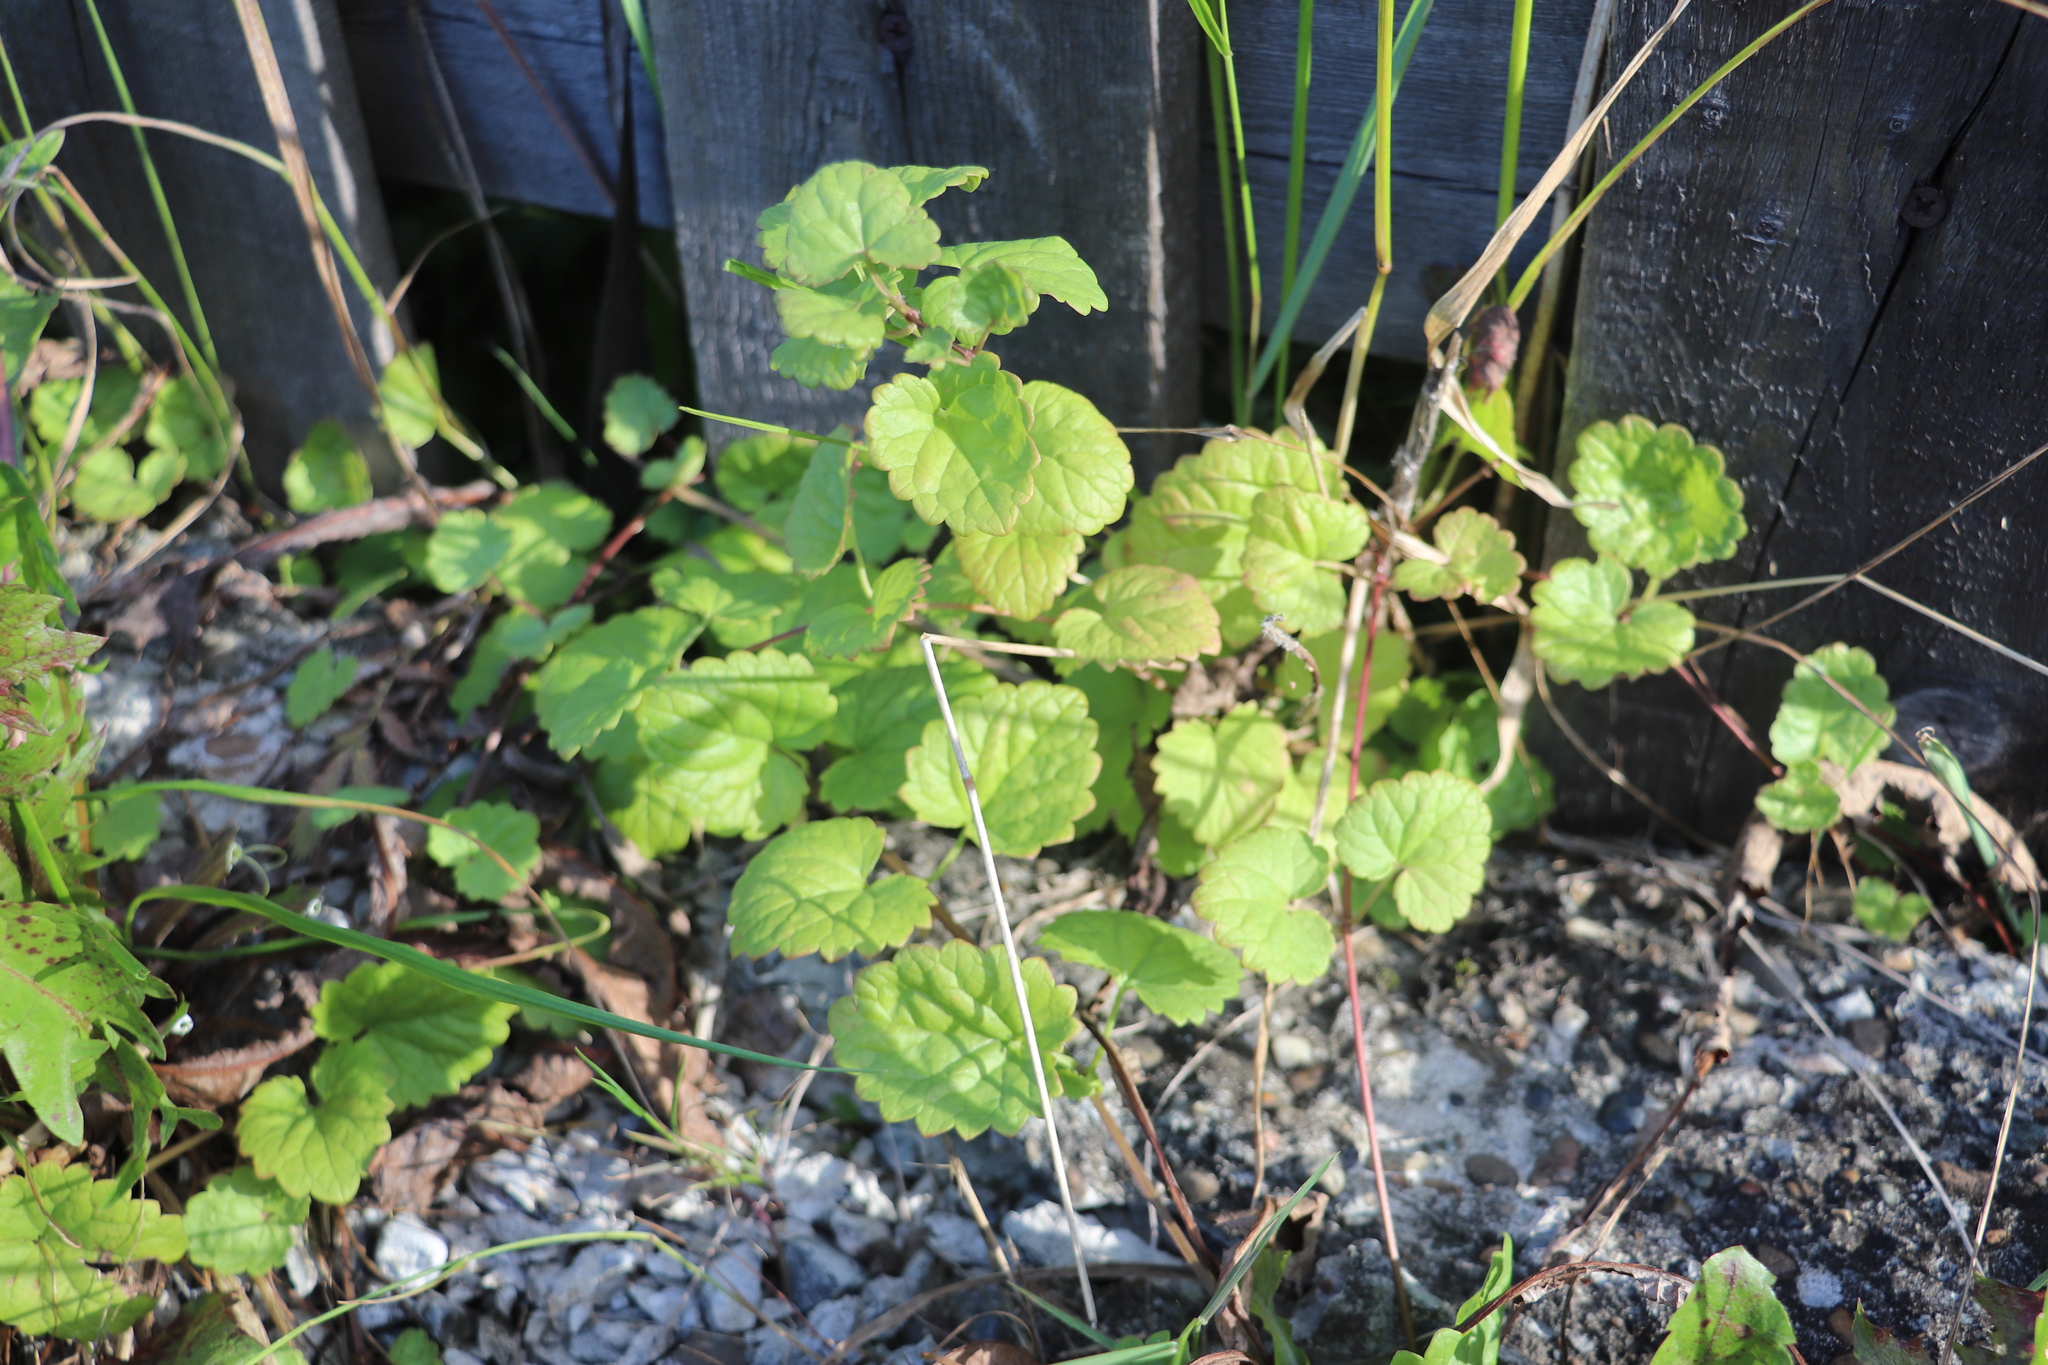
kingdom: Plantae
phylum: Tracheophyta
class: Magnoliopsida
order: Lamiales
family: Lamiaceae
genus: Glechoma
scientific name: Glechoma hederacea
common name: Ground ivy
